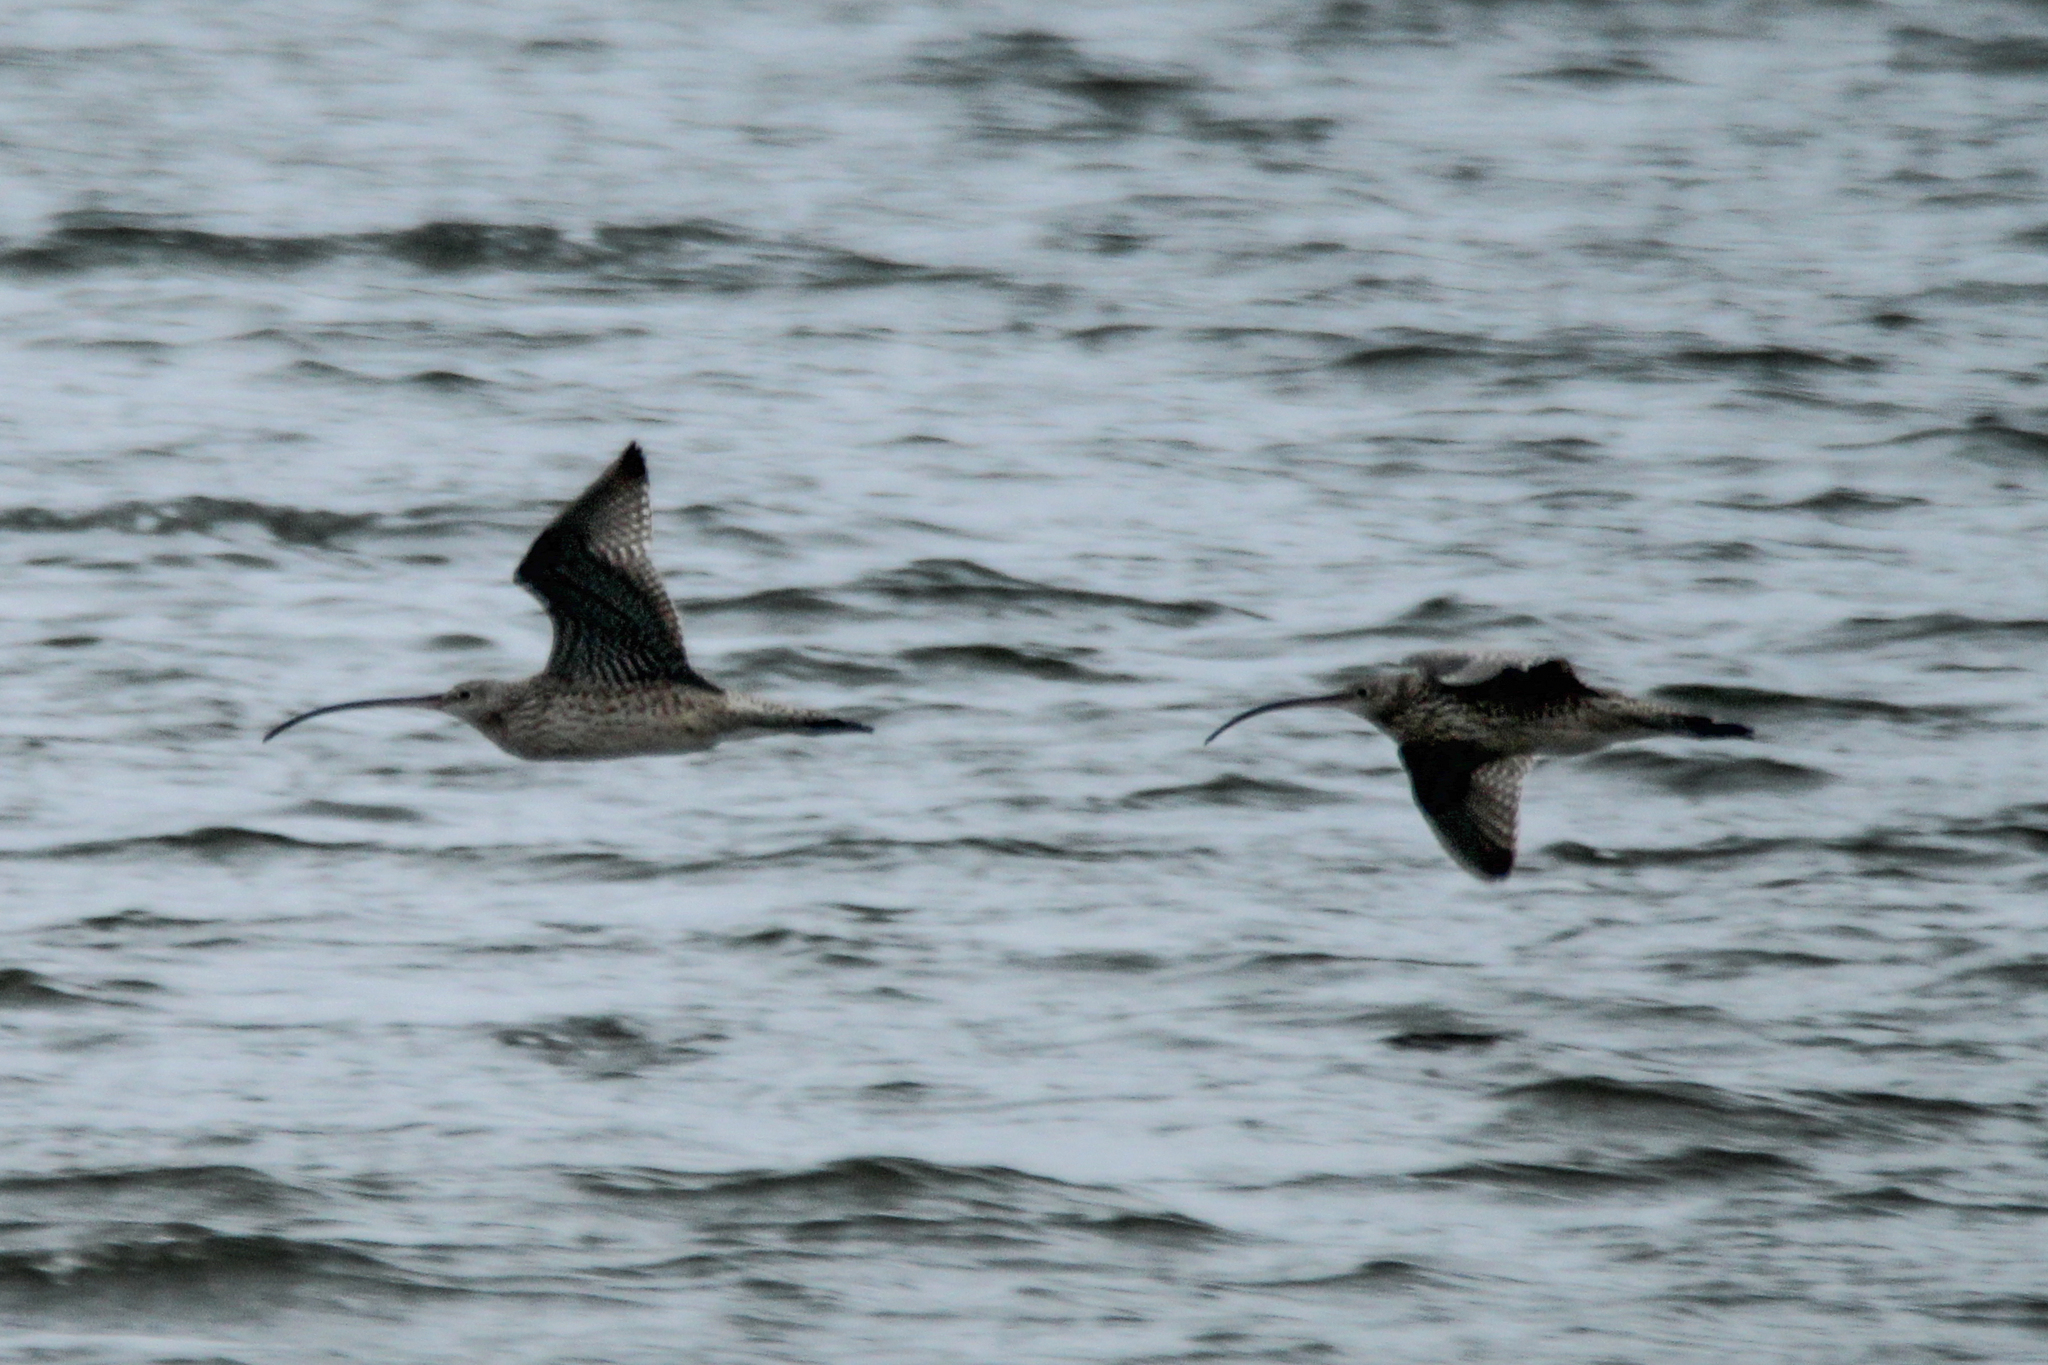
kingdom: Animalia
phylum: Chordata
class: Aves
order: Charadriiformes
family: Scolopacidae
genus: Numenius
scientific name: Numenius madagascariensis
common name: Far eastern curlew
